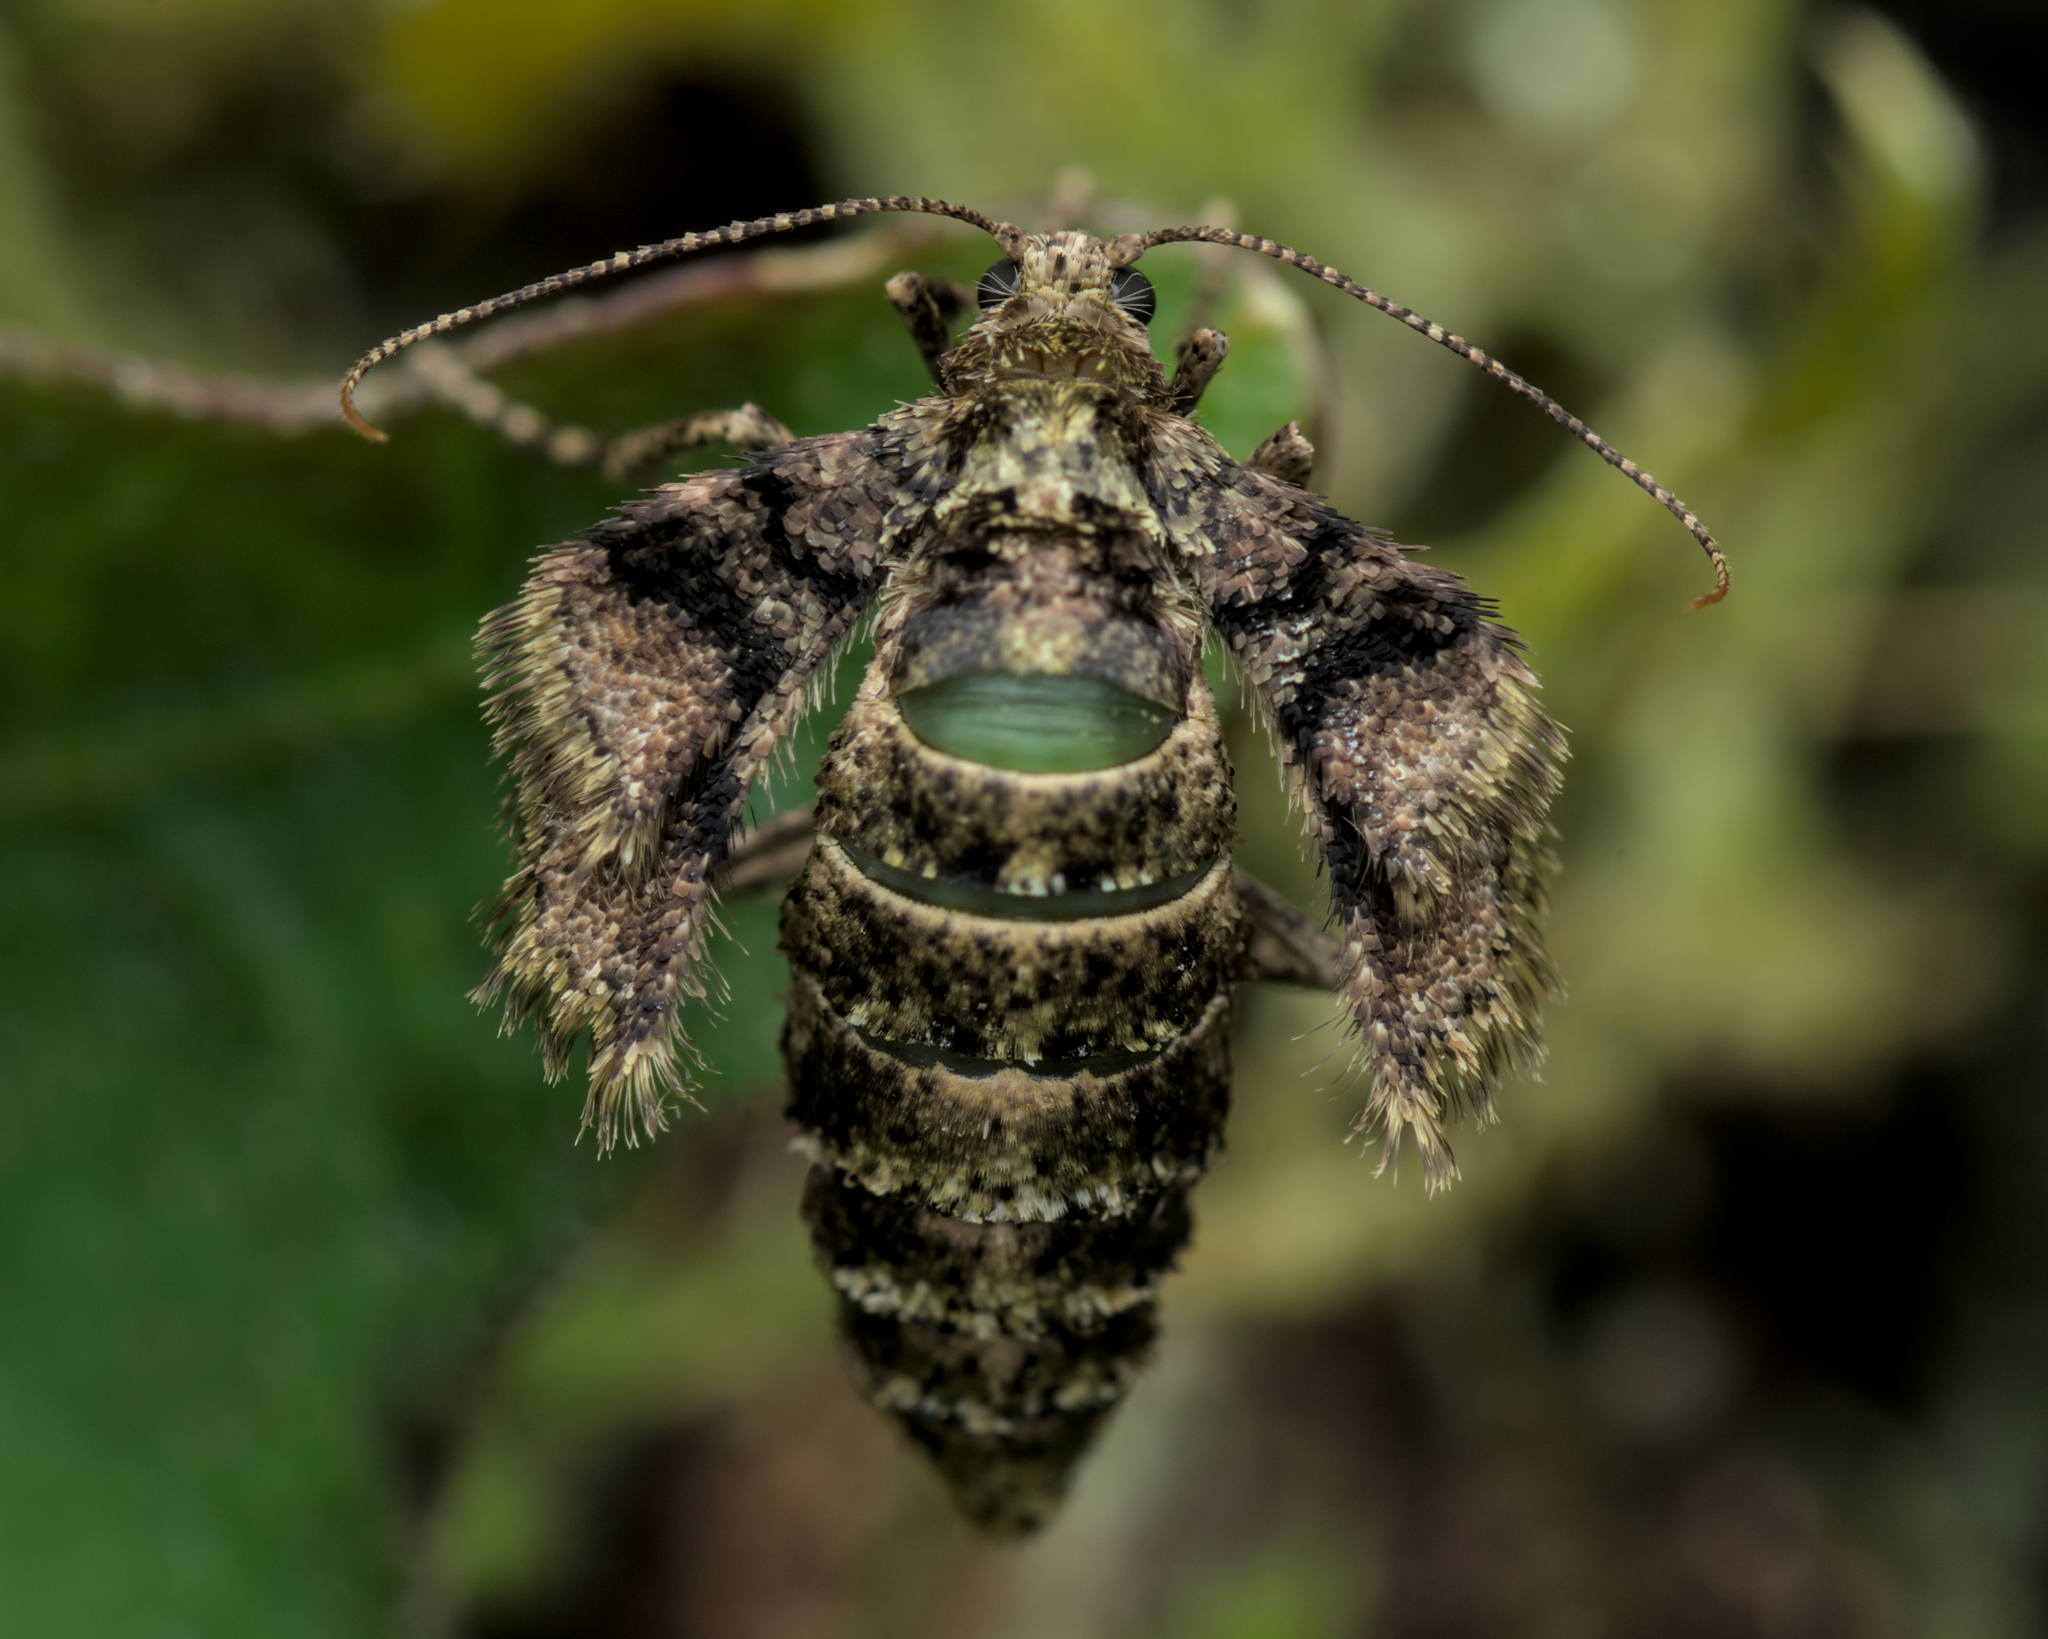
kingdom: Animalia
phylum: Arthropoda
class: Insecta
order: Lepidoptera
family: Geometridae
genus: Agriopis
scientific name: Agriopis marginaria
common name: Dotted border
